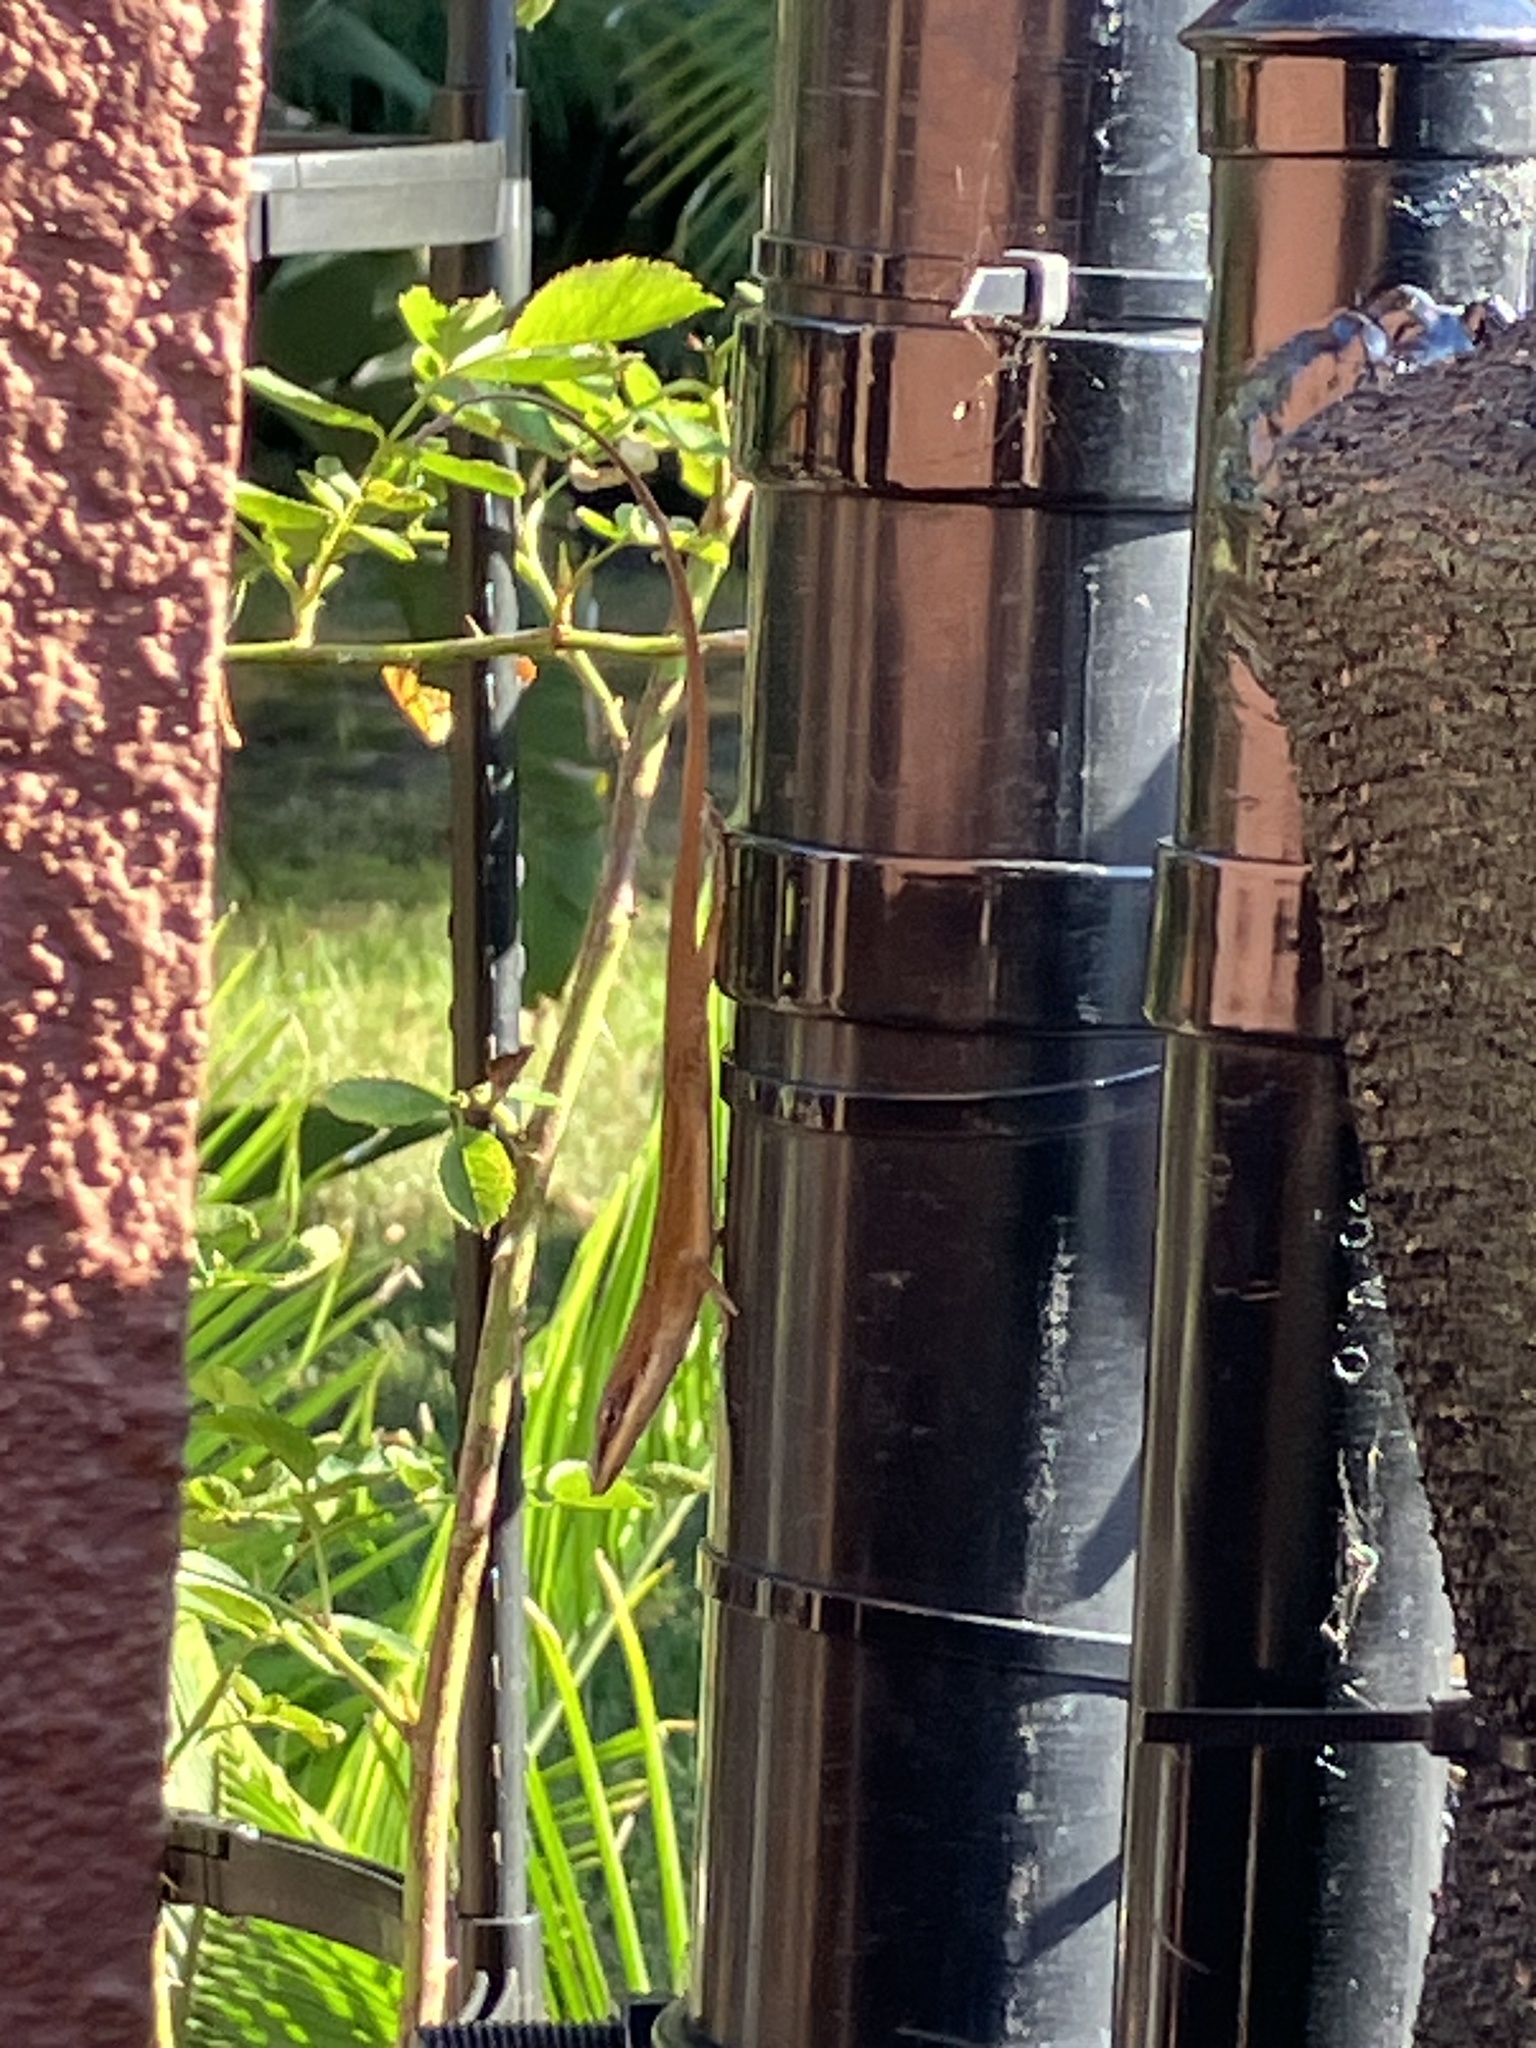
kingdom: Animalia
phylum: Chordata
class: Squamata
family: Dactyloidae
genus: Anolis
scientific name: Anolis carolinensis
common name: Green anole
